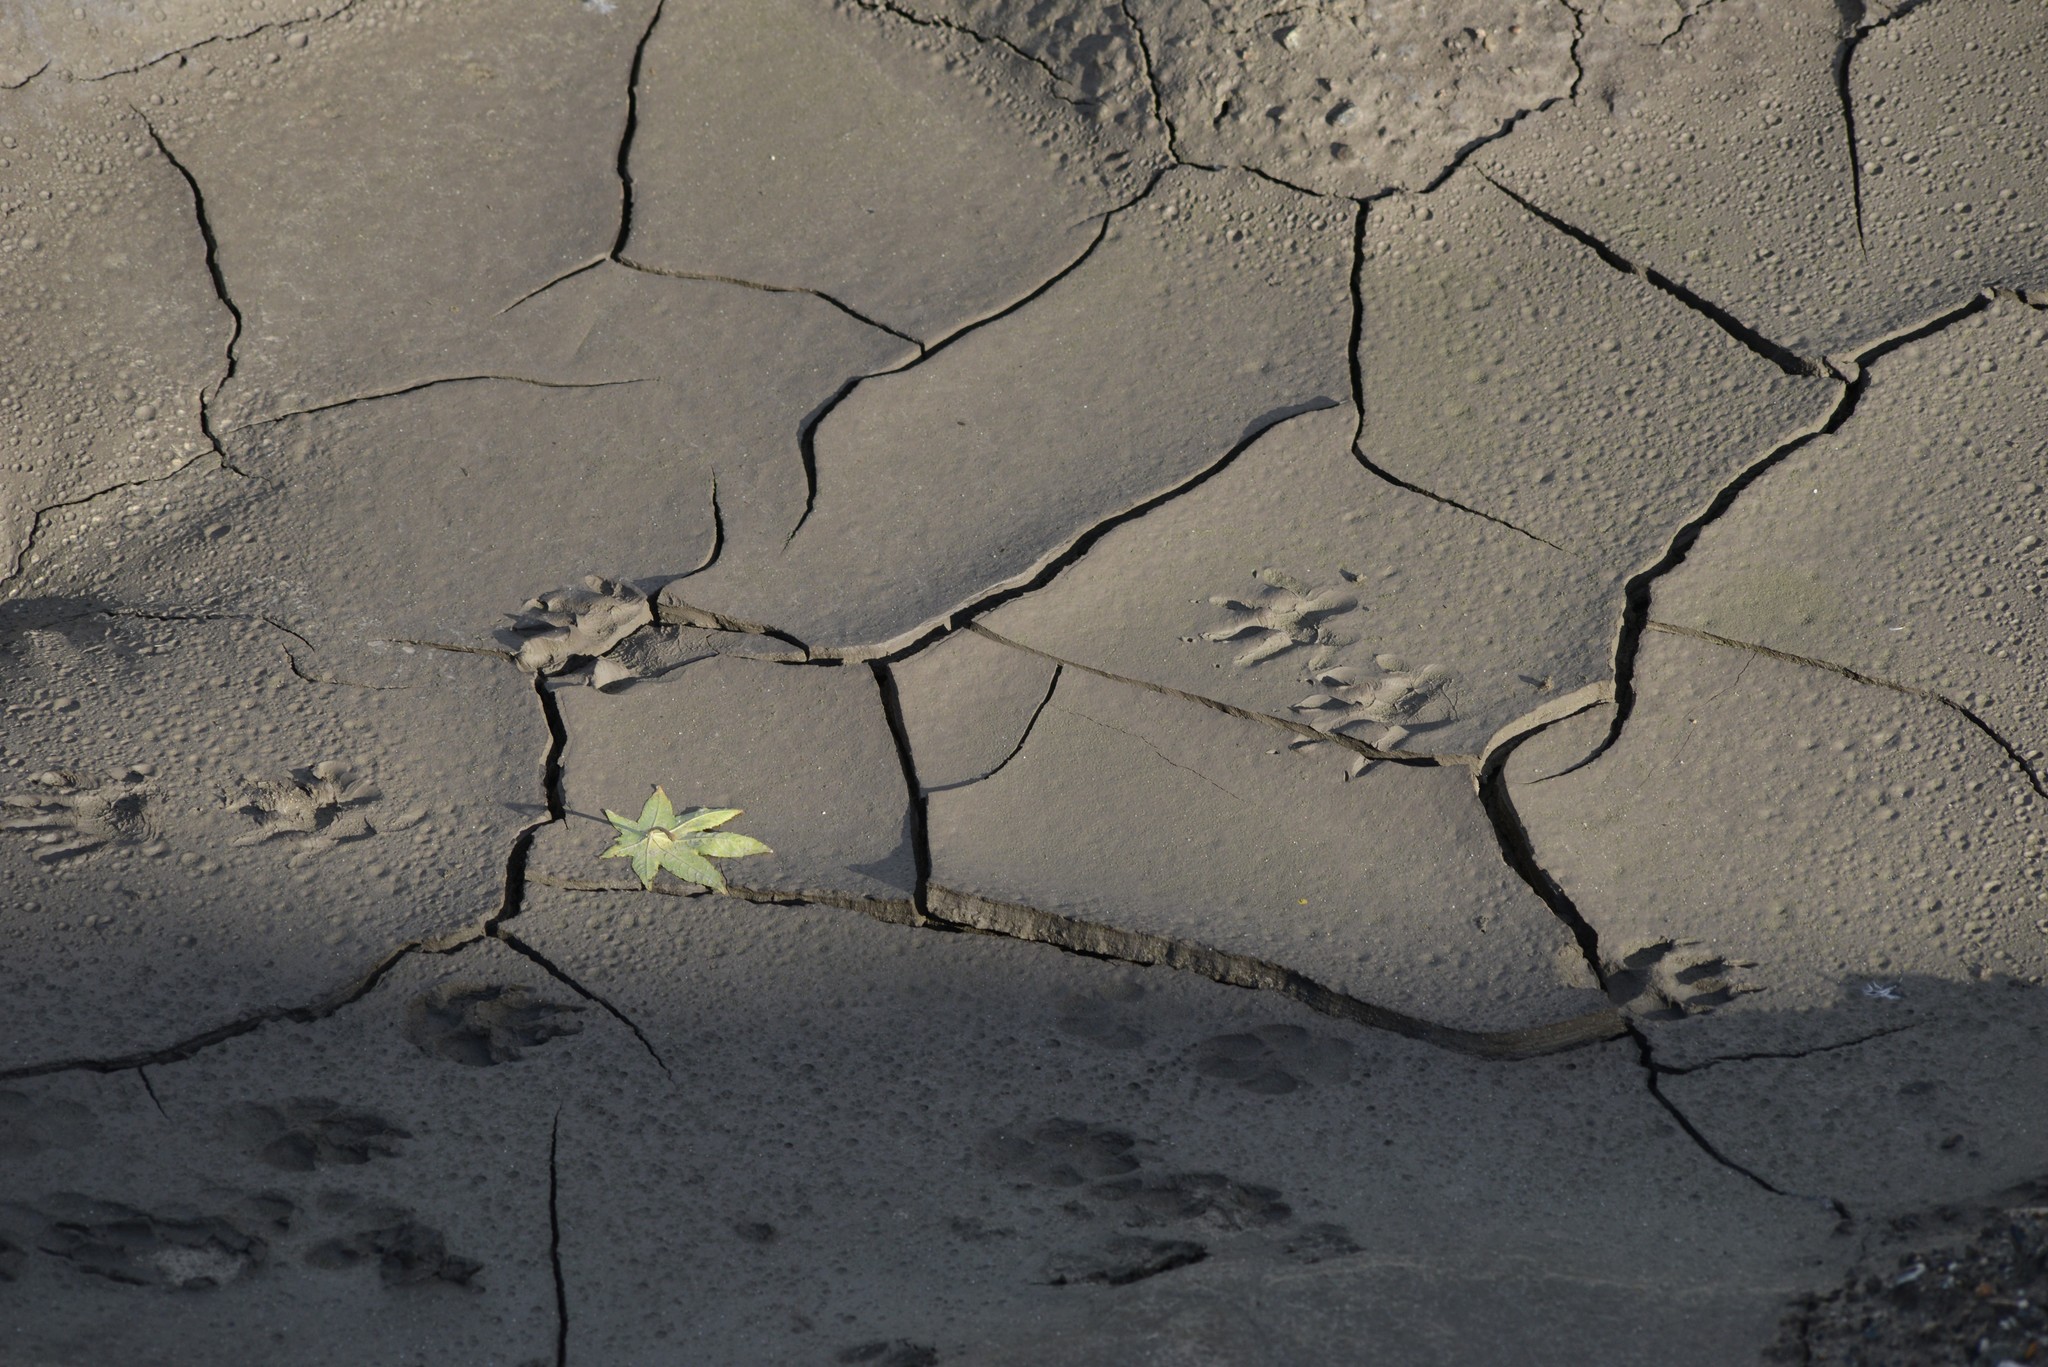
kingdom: Animalia
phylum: Chordata
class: Mammalia
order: Carnivora
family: Procyonidae
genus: Procyon
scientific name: Procyon lotor
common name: Raccoon
